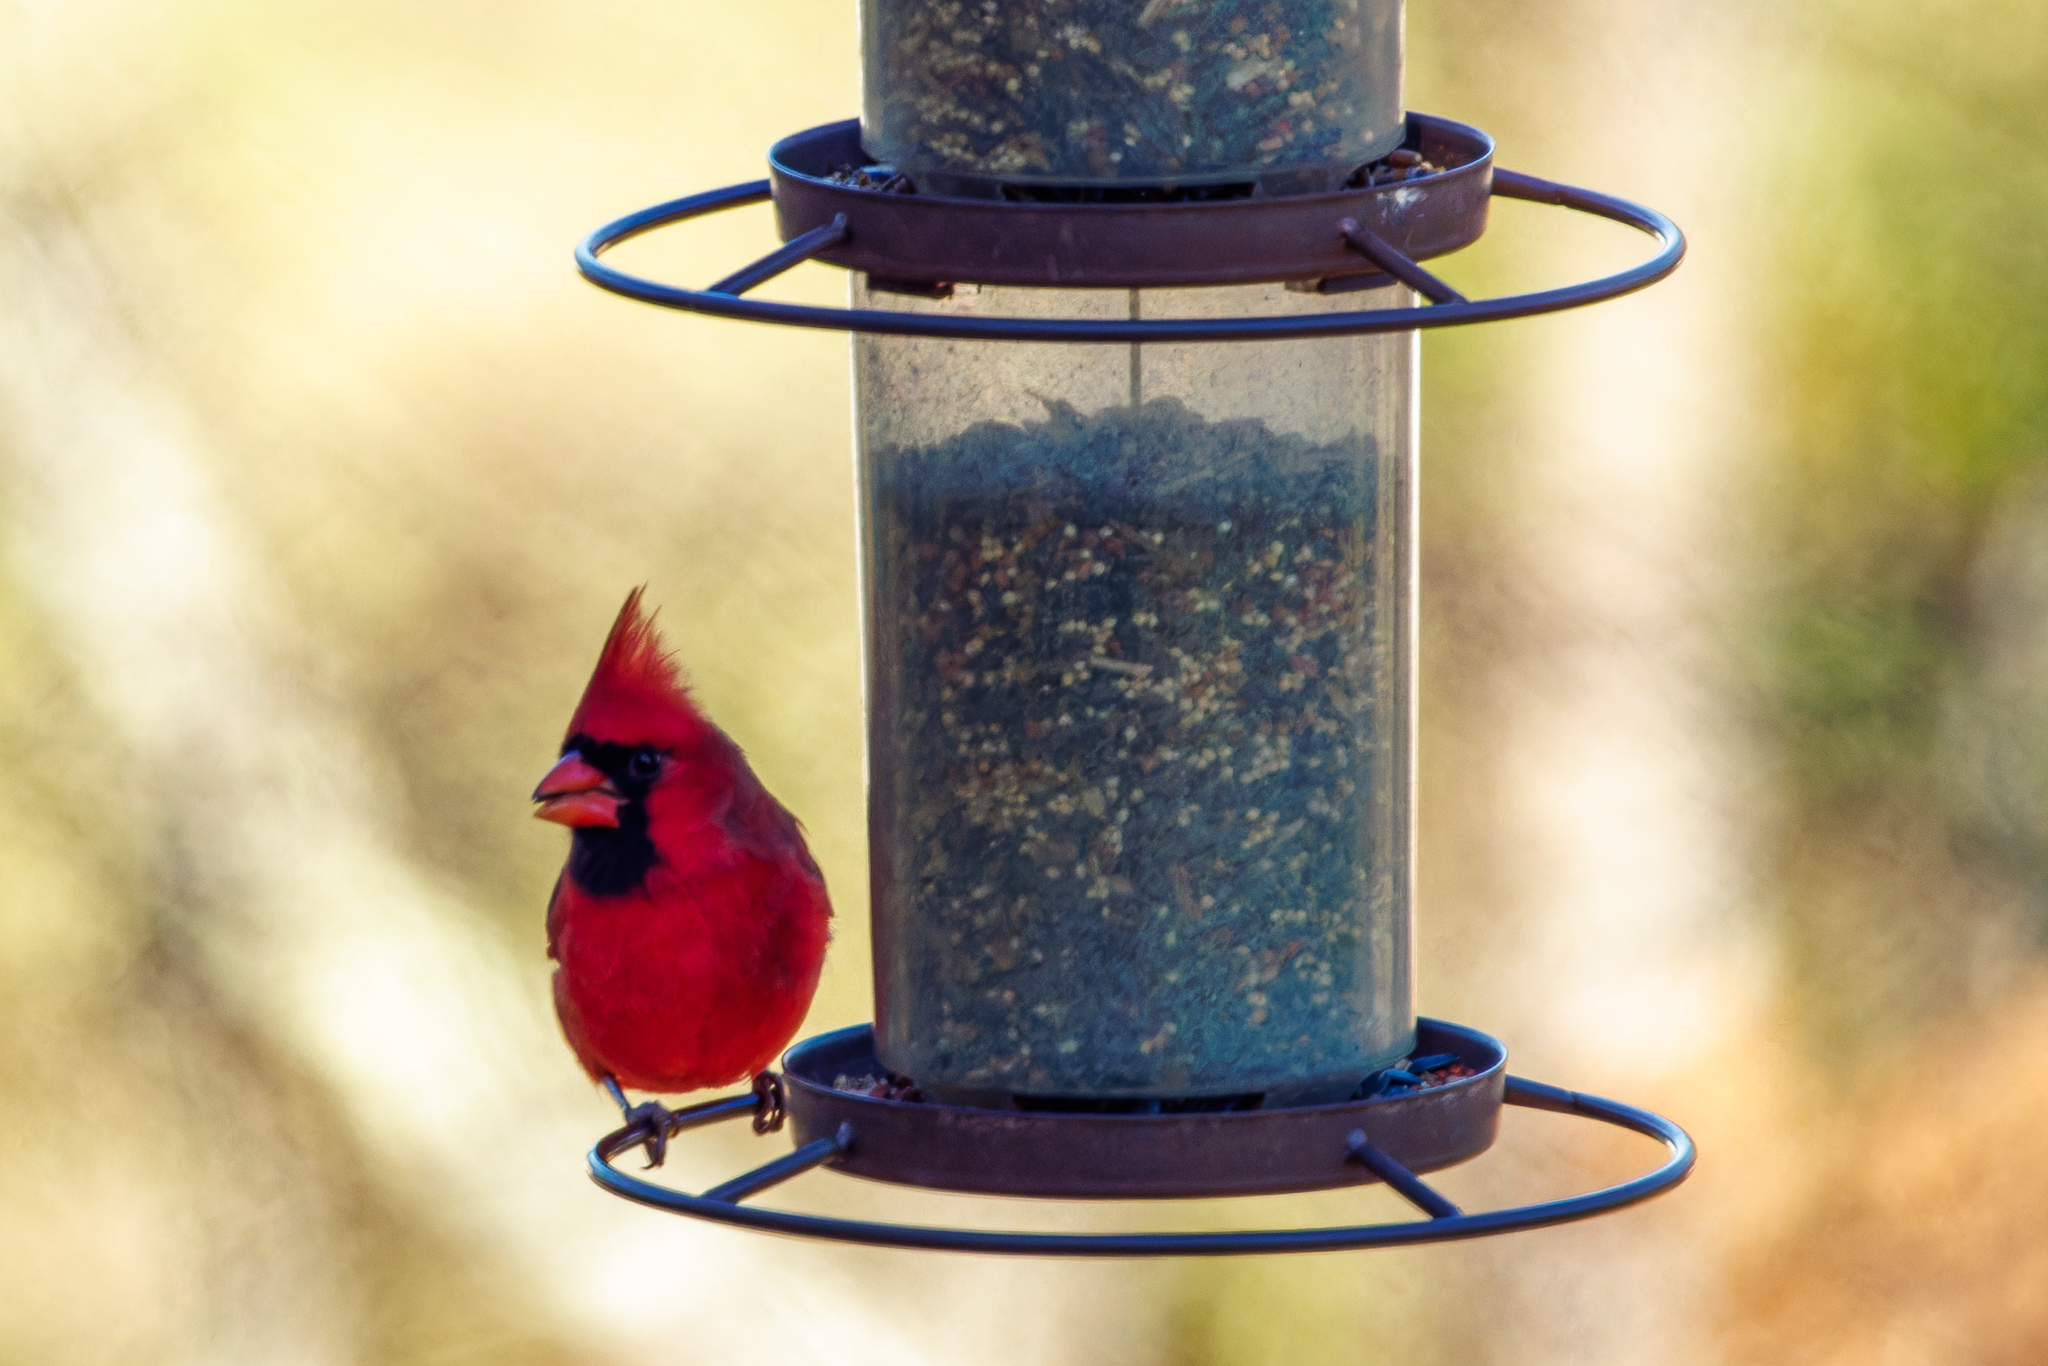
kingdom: Animalia
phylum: Chordata
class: Aves
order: Passeriformes
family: Cardinalidae
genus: Cardinalis
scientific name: Cardinalis cardinalis
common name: Northern cardinal
